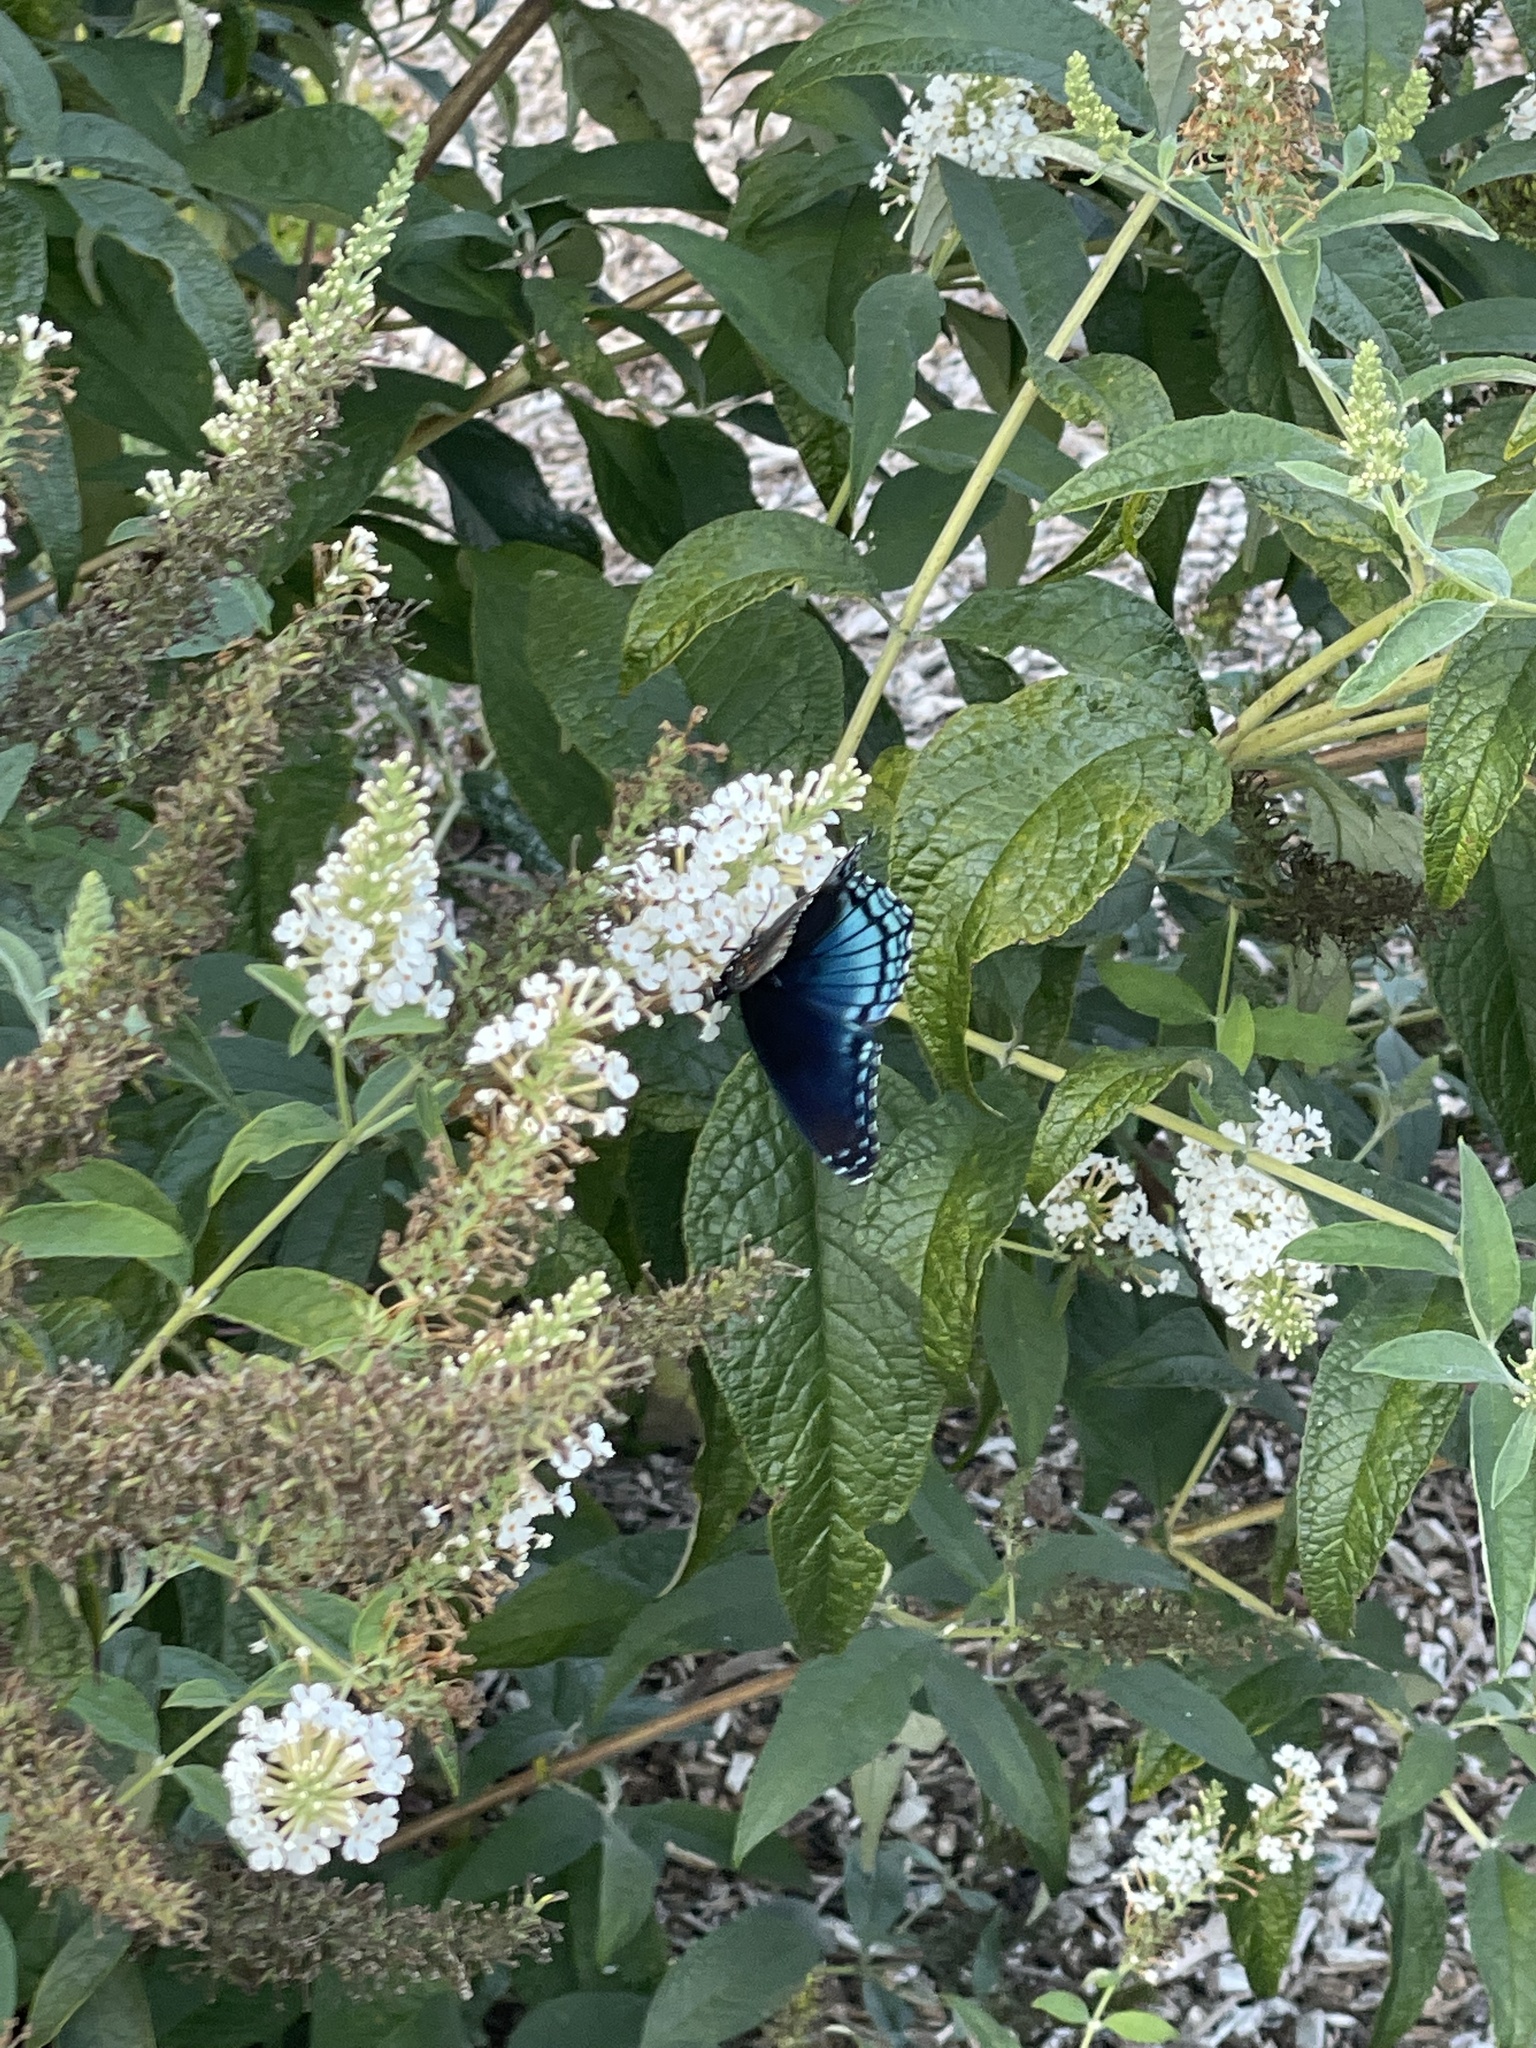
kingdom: Animalia
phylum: Arthropoda
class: Insecta
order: Lepidoptera
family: Nymphalidae
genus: Limenitis
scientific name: Limenitis arthemis
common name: Red-spotted admiral
